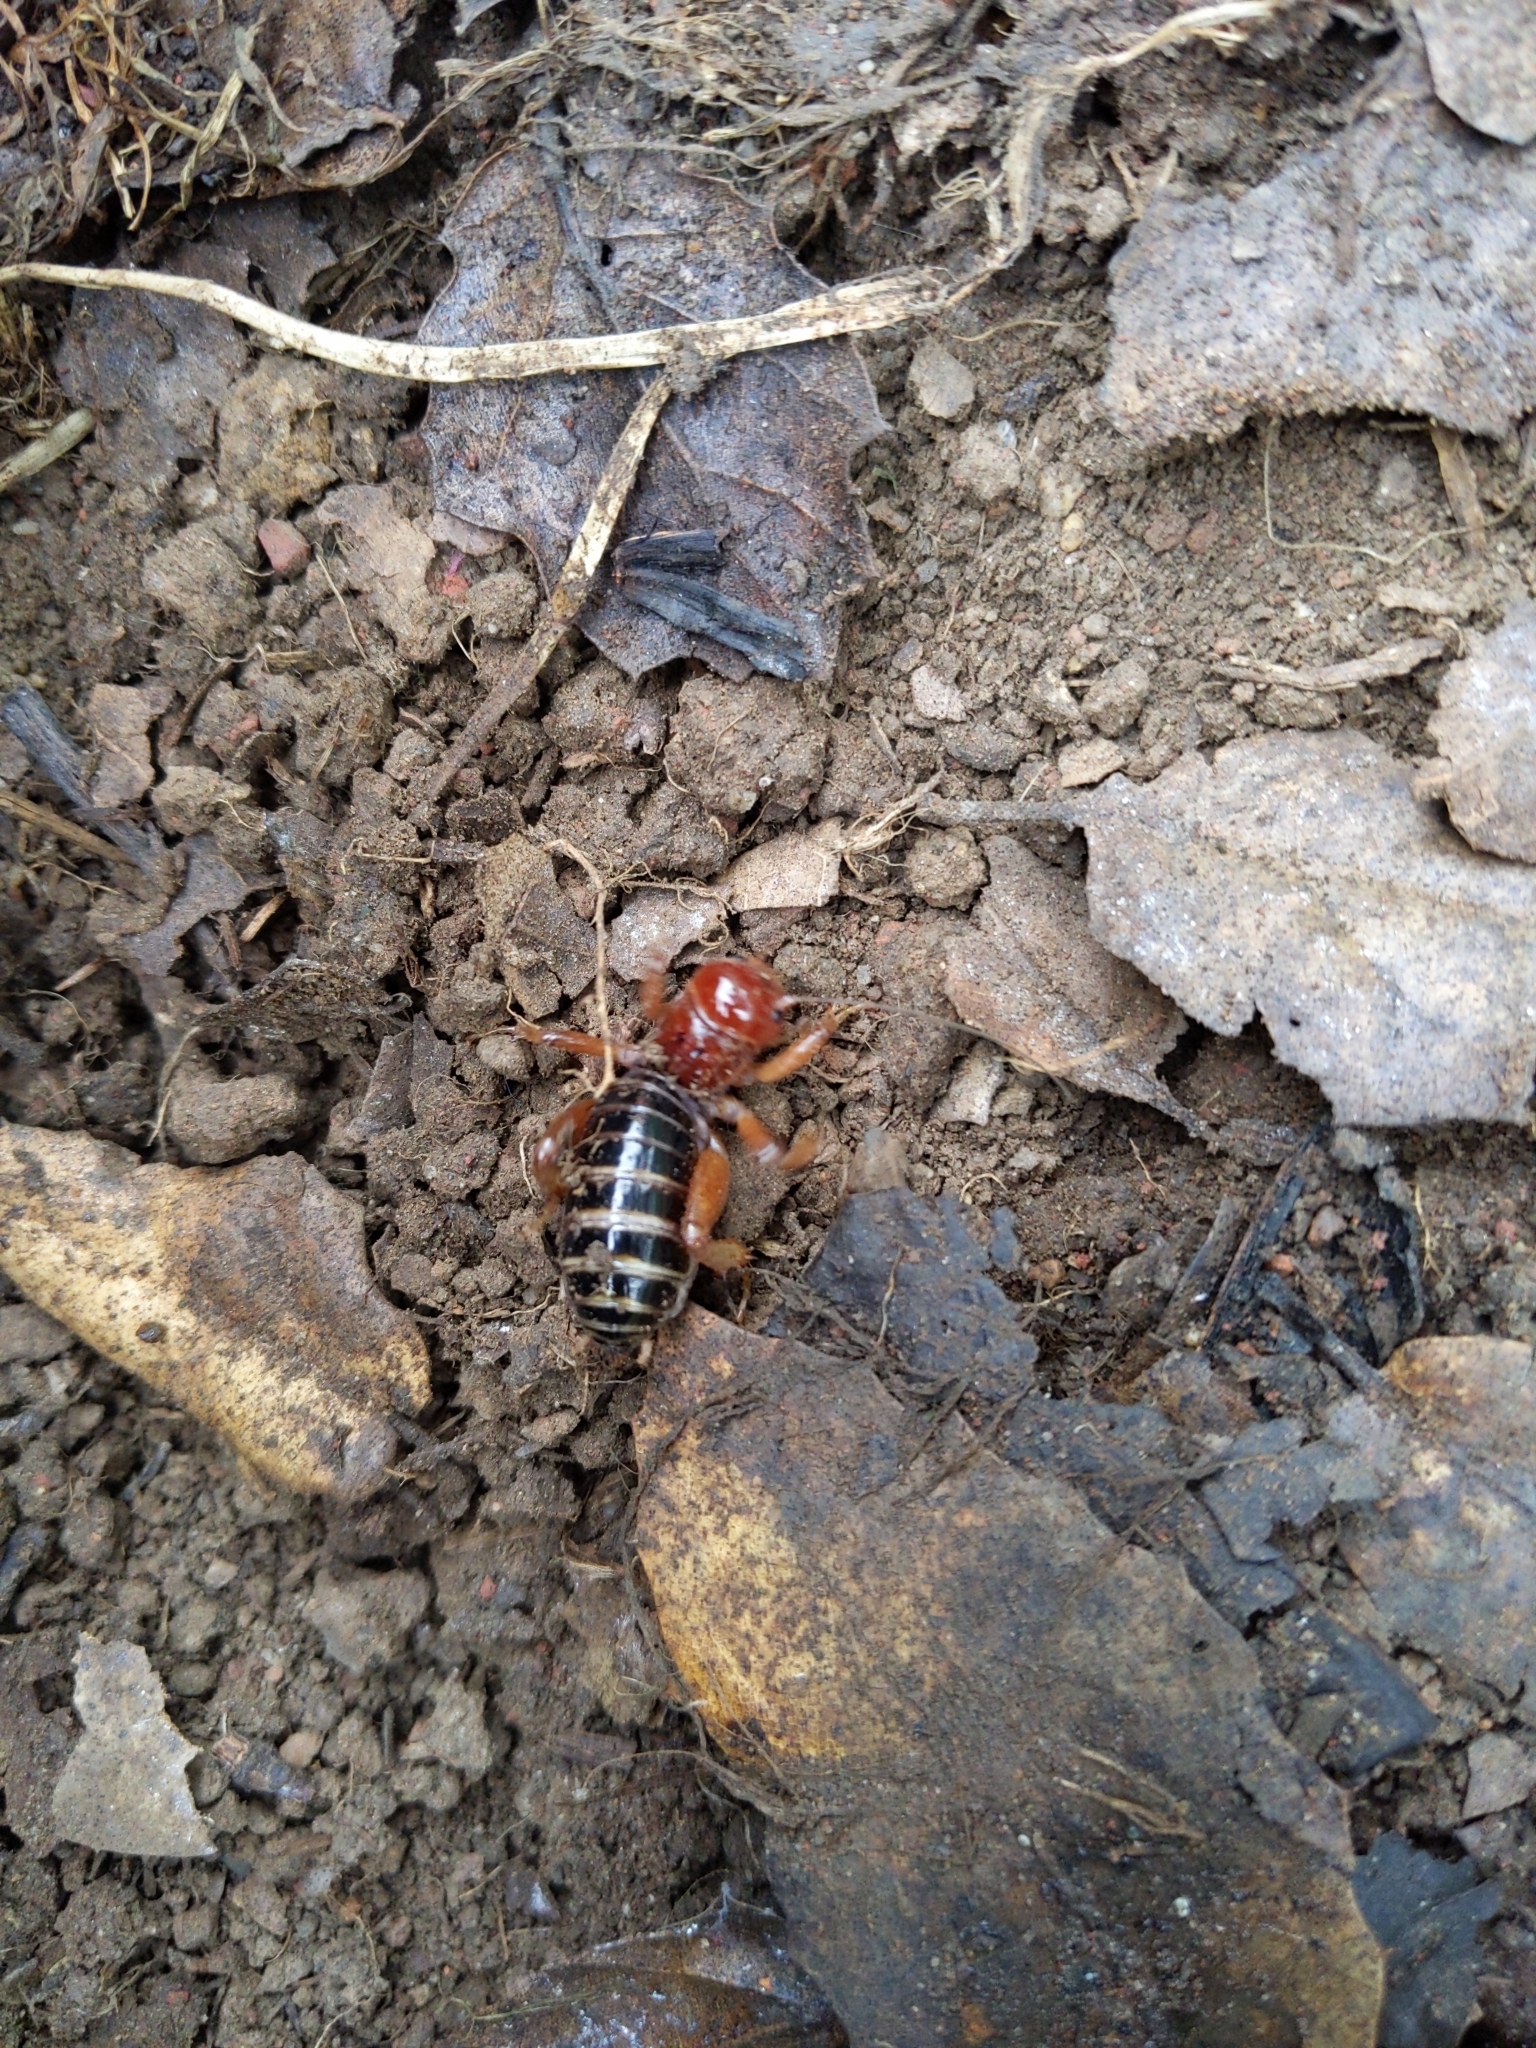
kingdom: Animalia
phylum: Arthropoda
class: Insecta
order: Orthoptera
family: Stenopelmatidae
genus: Ammopelmatus
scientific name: Ammopelmatus
